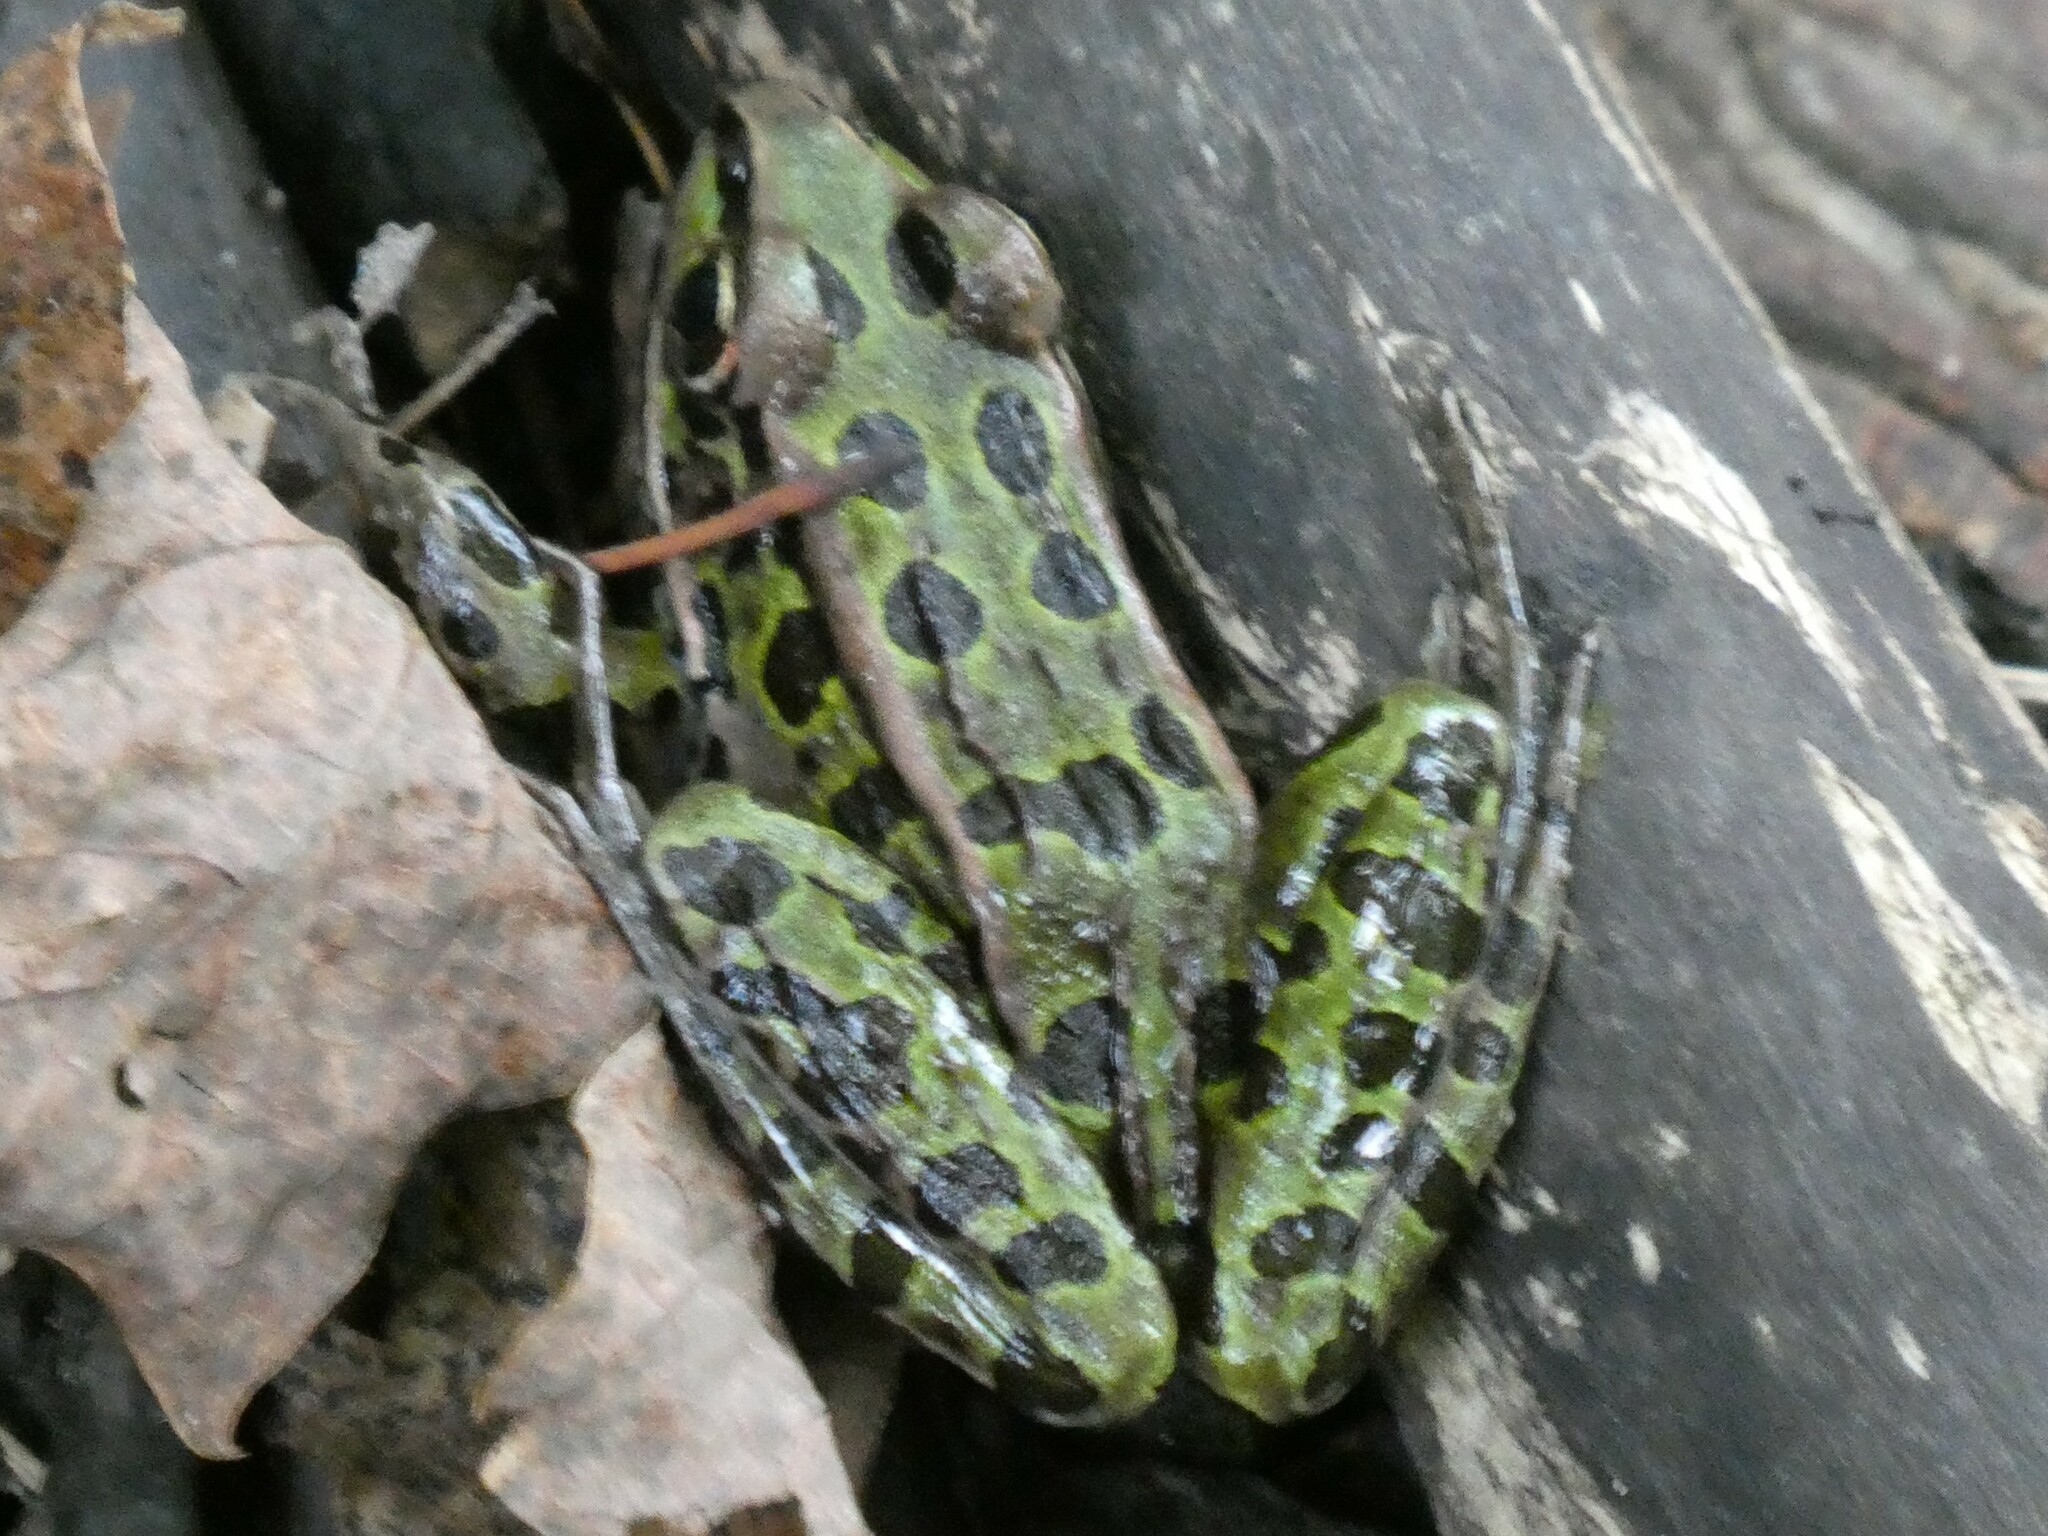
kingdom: Animalia
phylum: Chordata
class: Amphibia
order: Anura
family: Ranidae
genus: Lithobates
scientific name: Lithobates pipiens
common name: Northern leopard frog
